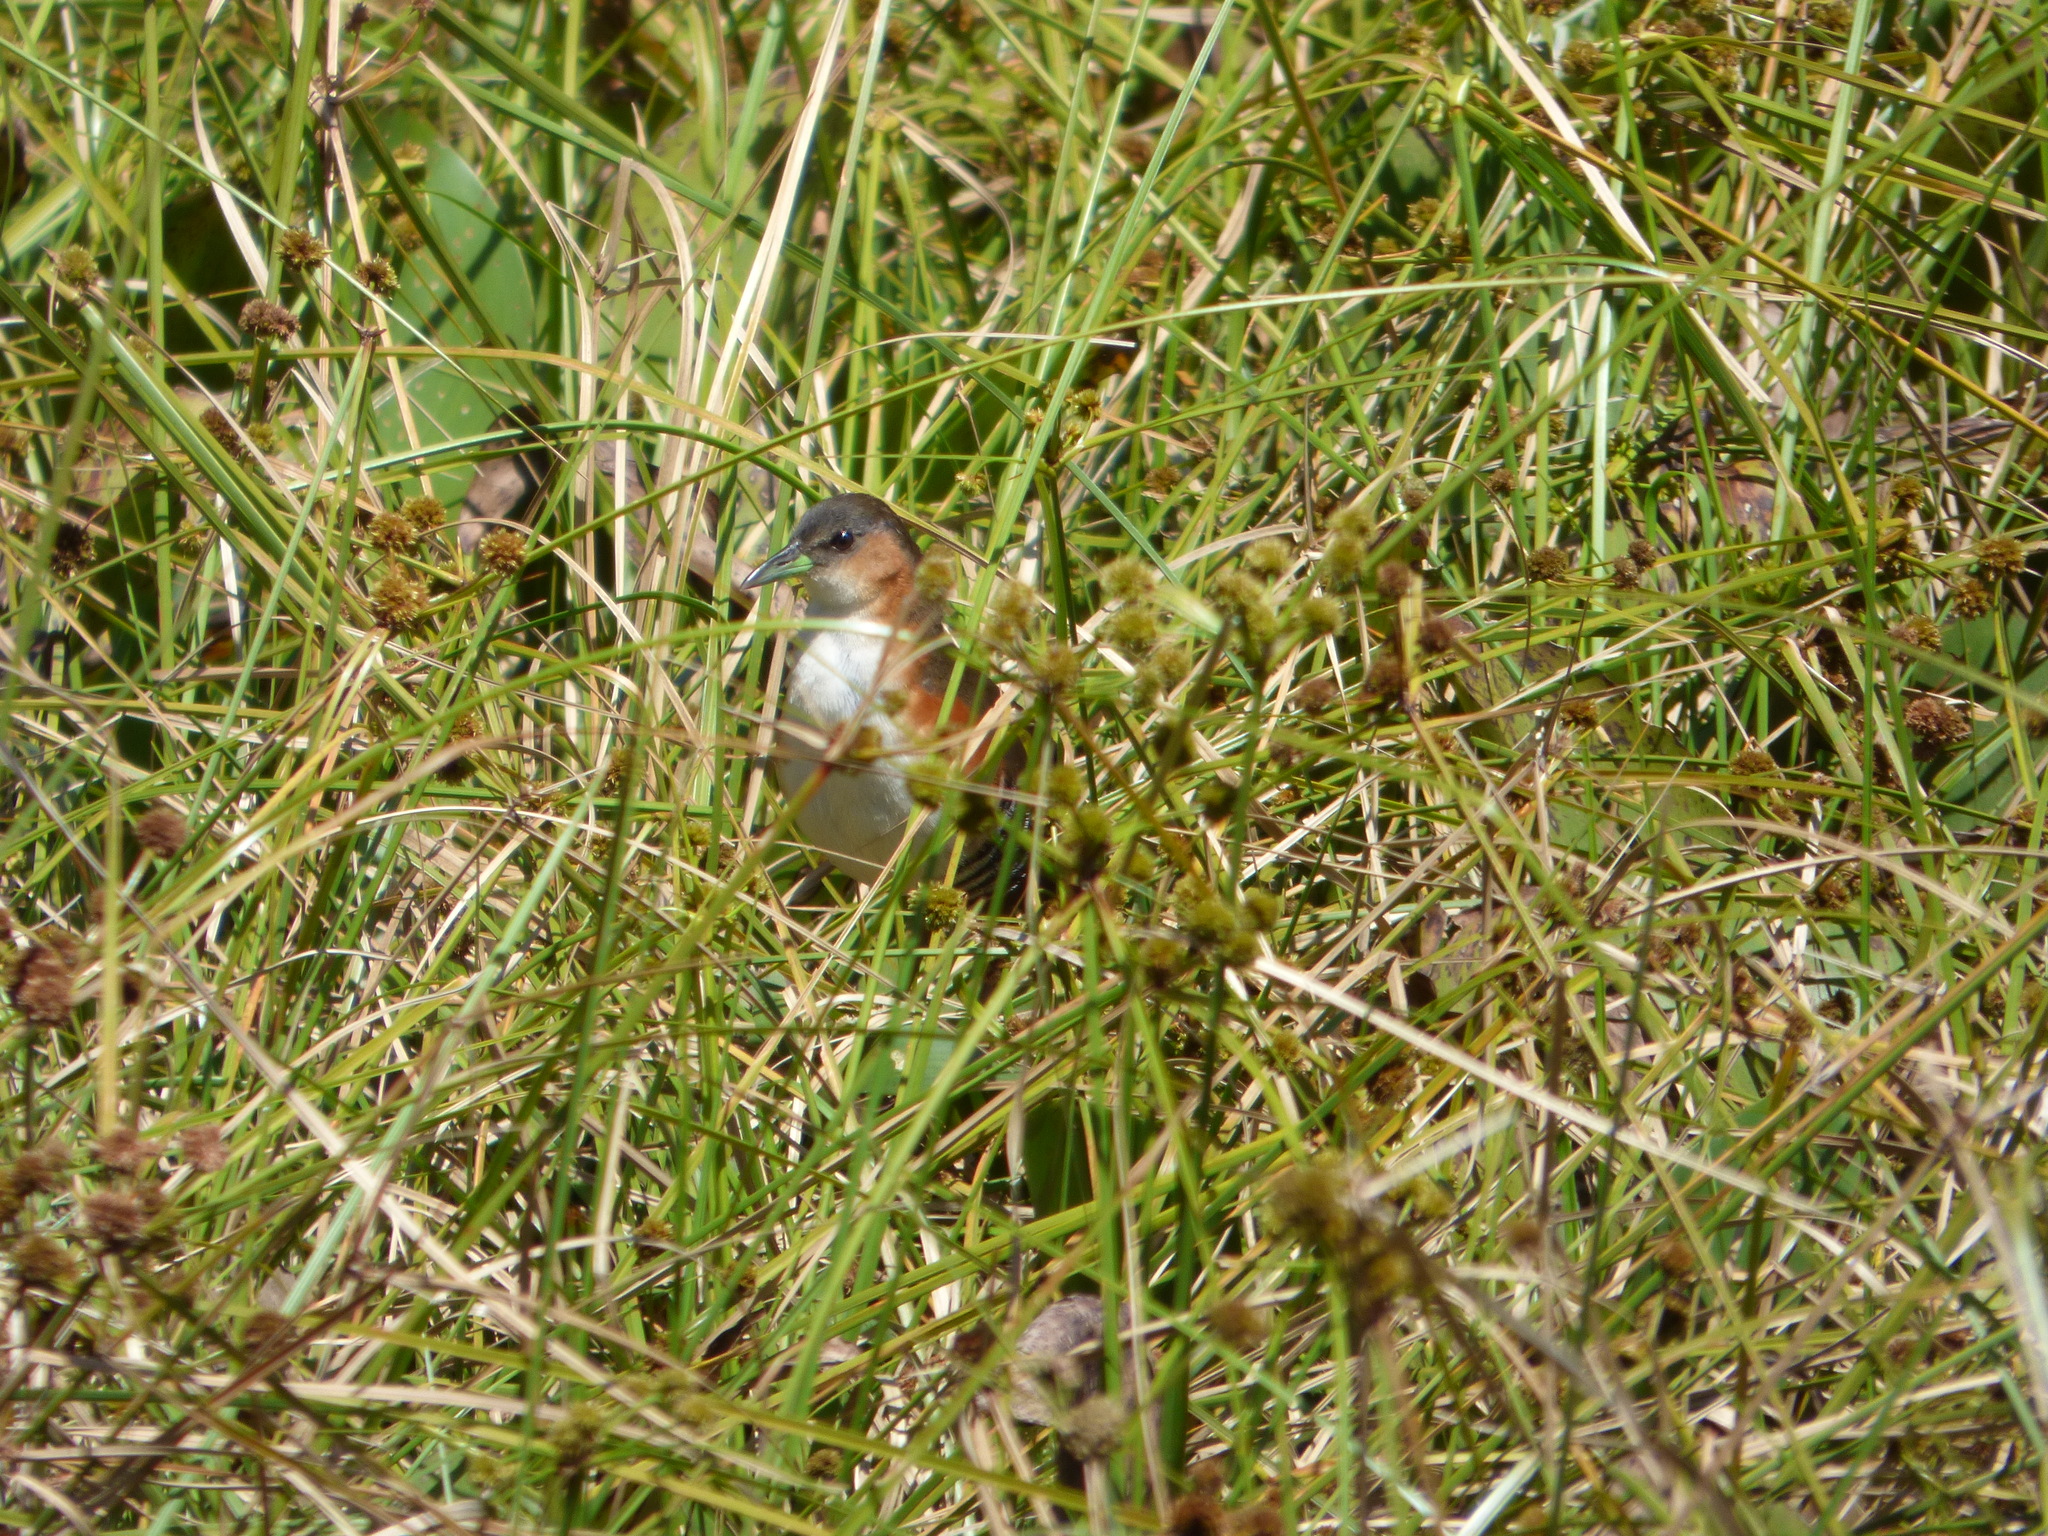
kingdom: Animalia
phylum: Chordata
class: Aves
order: Gruiformes
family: Rallidae
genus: Laterallus
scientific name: Laterallus melanophaius
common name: Rufous-sided crake
